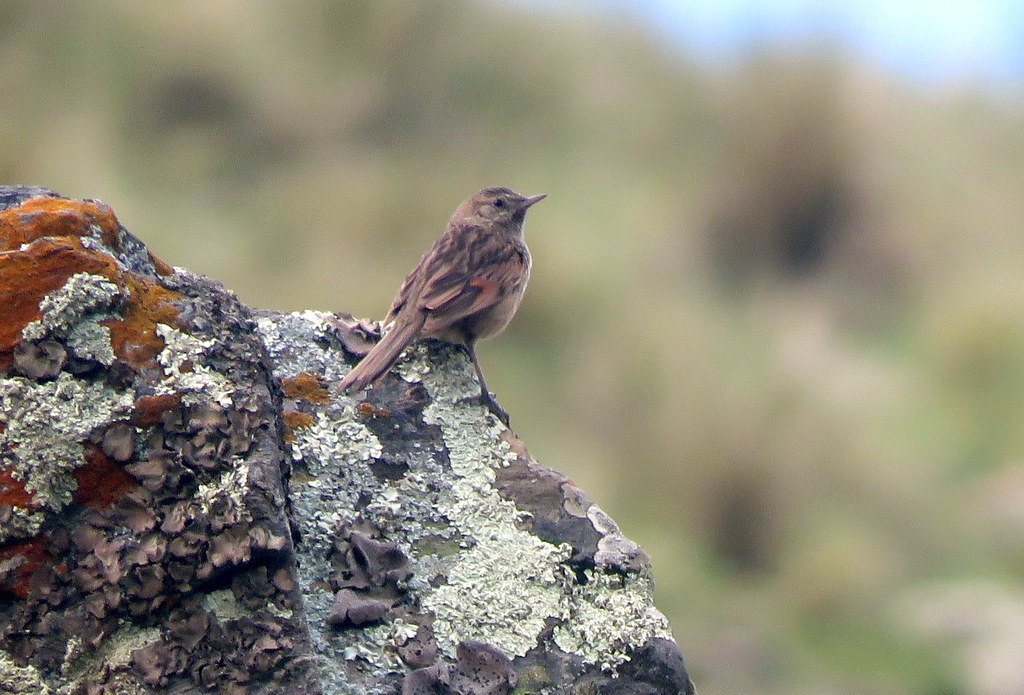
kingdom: Animalia
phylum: Chordata
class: Aves
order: Passeriformes
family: Furnariidae
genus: Asthenes
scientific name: Asthenes wyatti
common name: Streak-backed canastero
